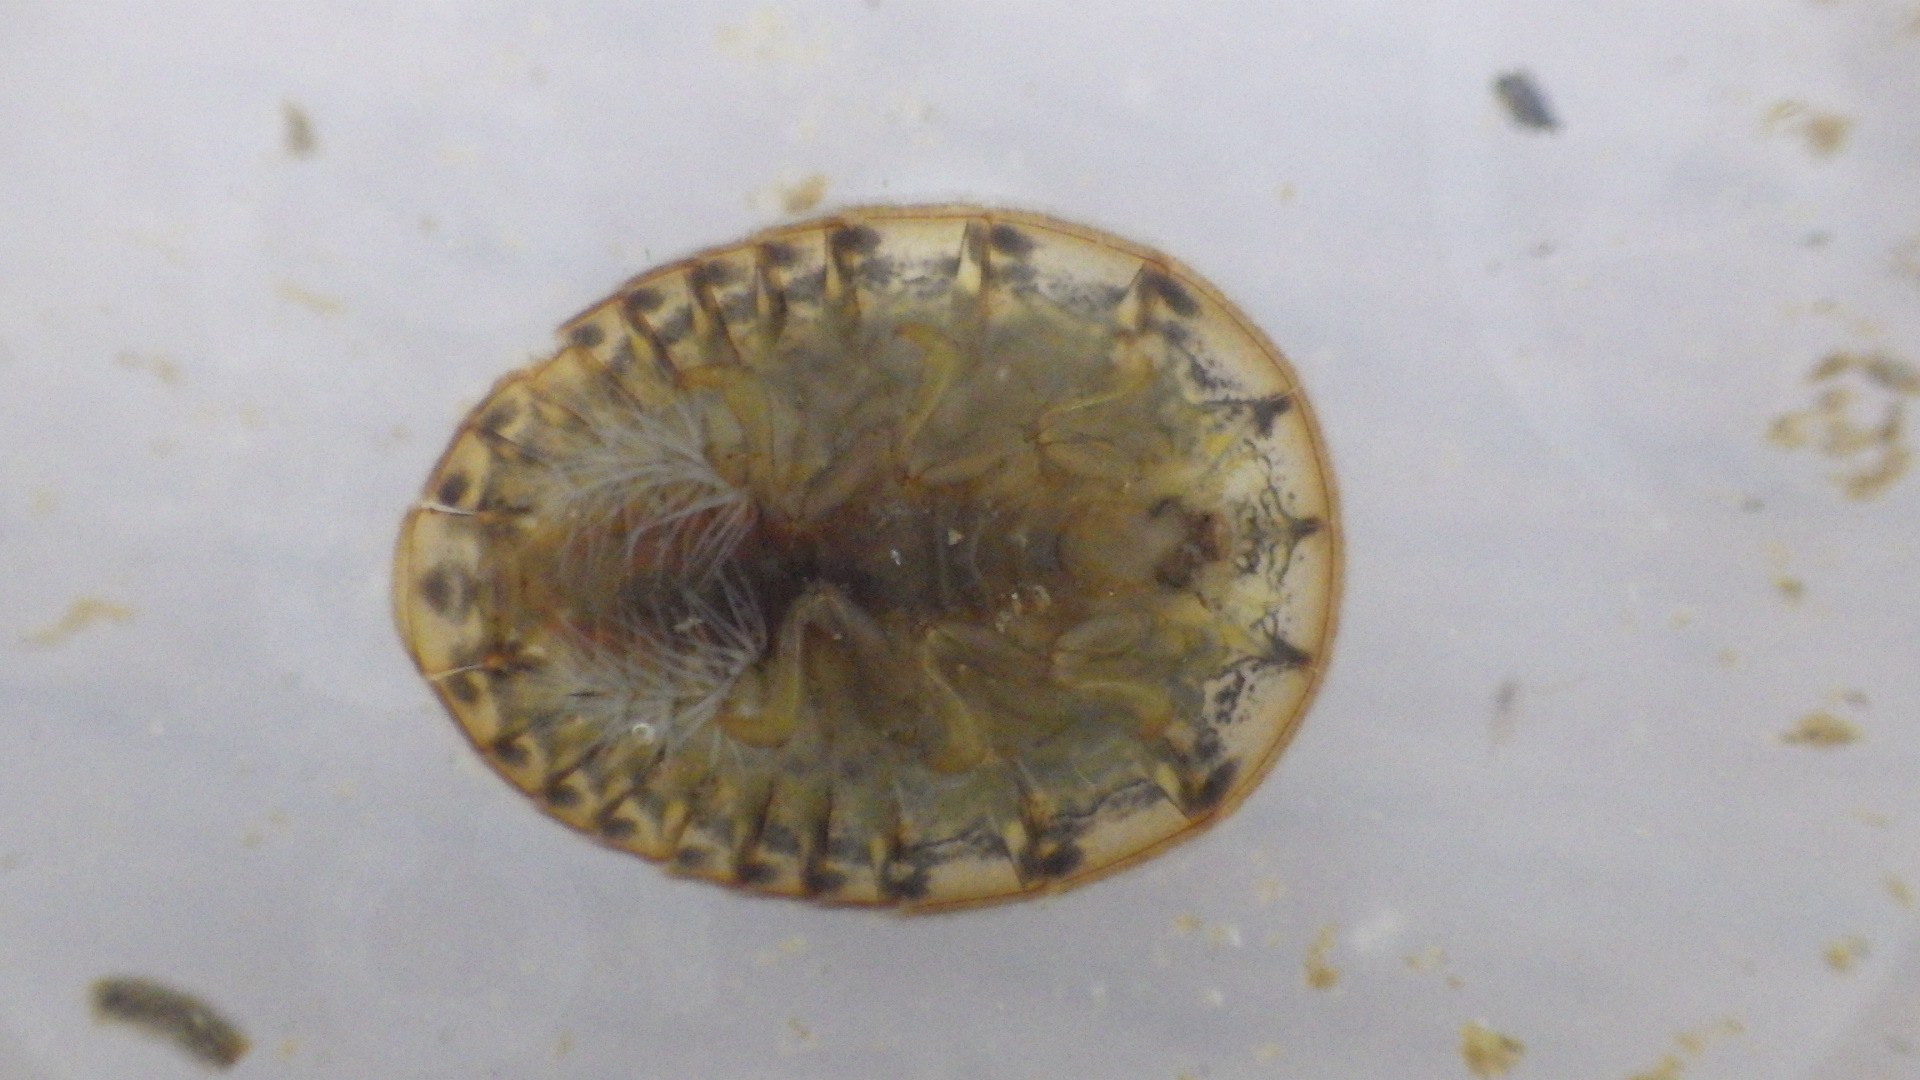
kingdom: Animalia
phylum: Arthropoda
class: Insecta
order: Coleoptera
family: Psephenidae
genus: Psephenus
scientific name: Psephenus herricki
